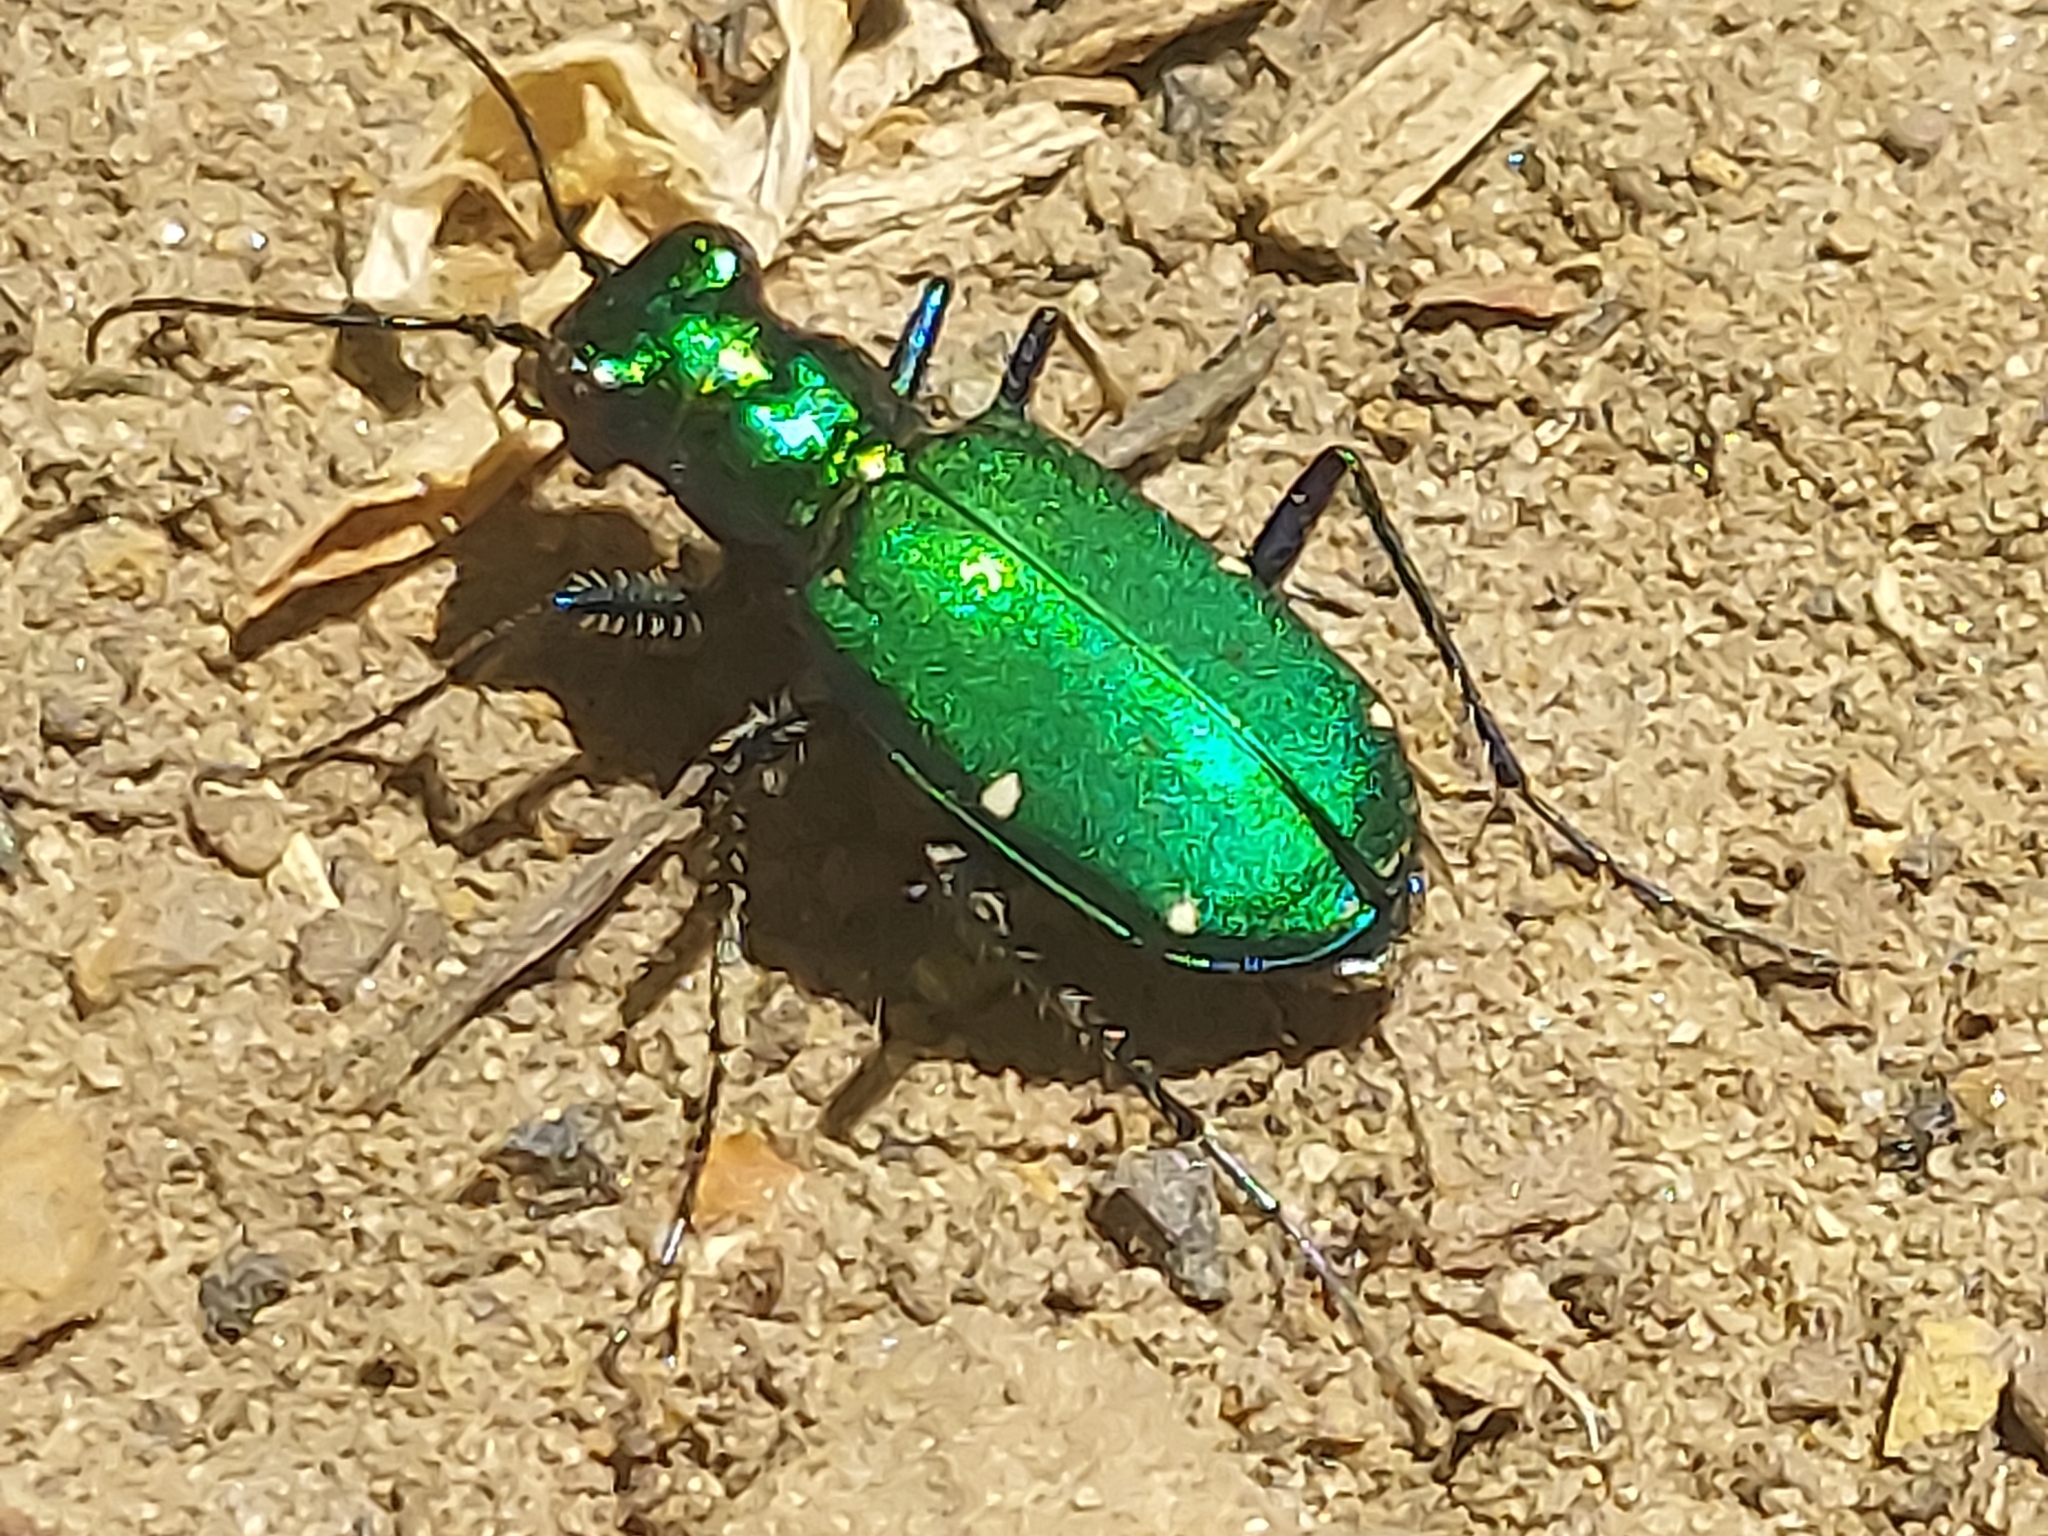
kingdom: Animalia
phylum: Arthropoda
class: Insecta
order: Coleoptera
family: Carabidae
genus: Cicindela
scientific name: Cicindela sexguttata
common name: Six-spotted tiger beetle
